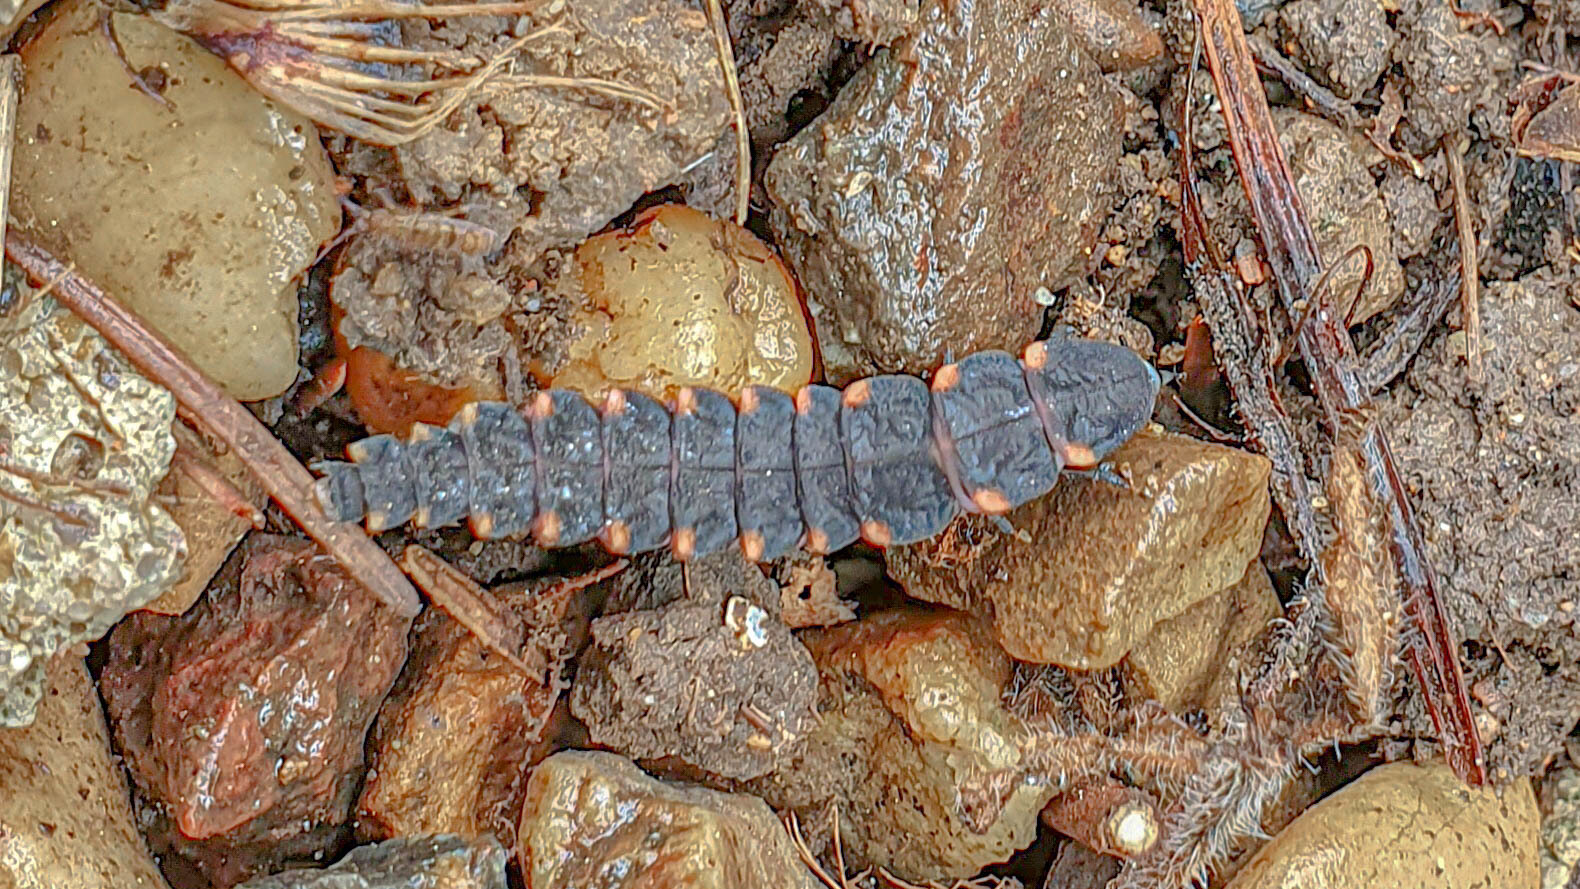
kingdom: Animalia
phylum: Arthropoda
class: Insecta
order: Coleoptera
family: Lampyridae
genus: Lampyris
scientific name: Lampyris noctiluca
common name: Glow-worm
